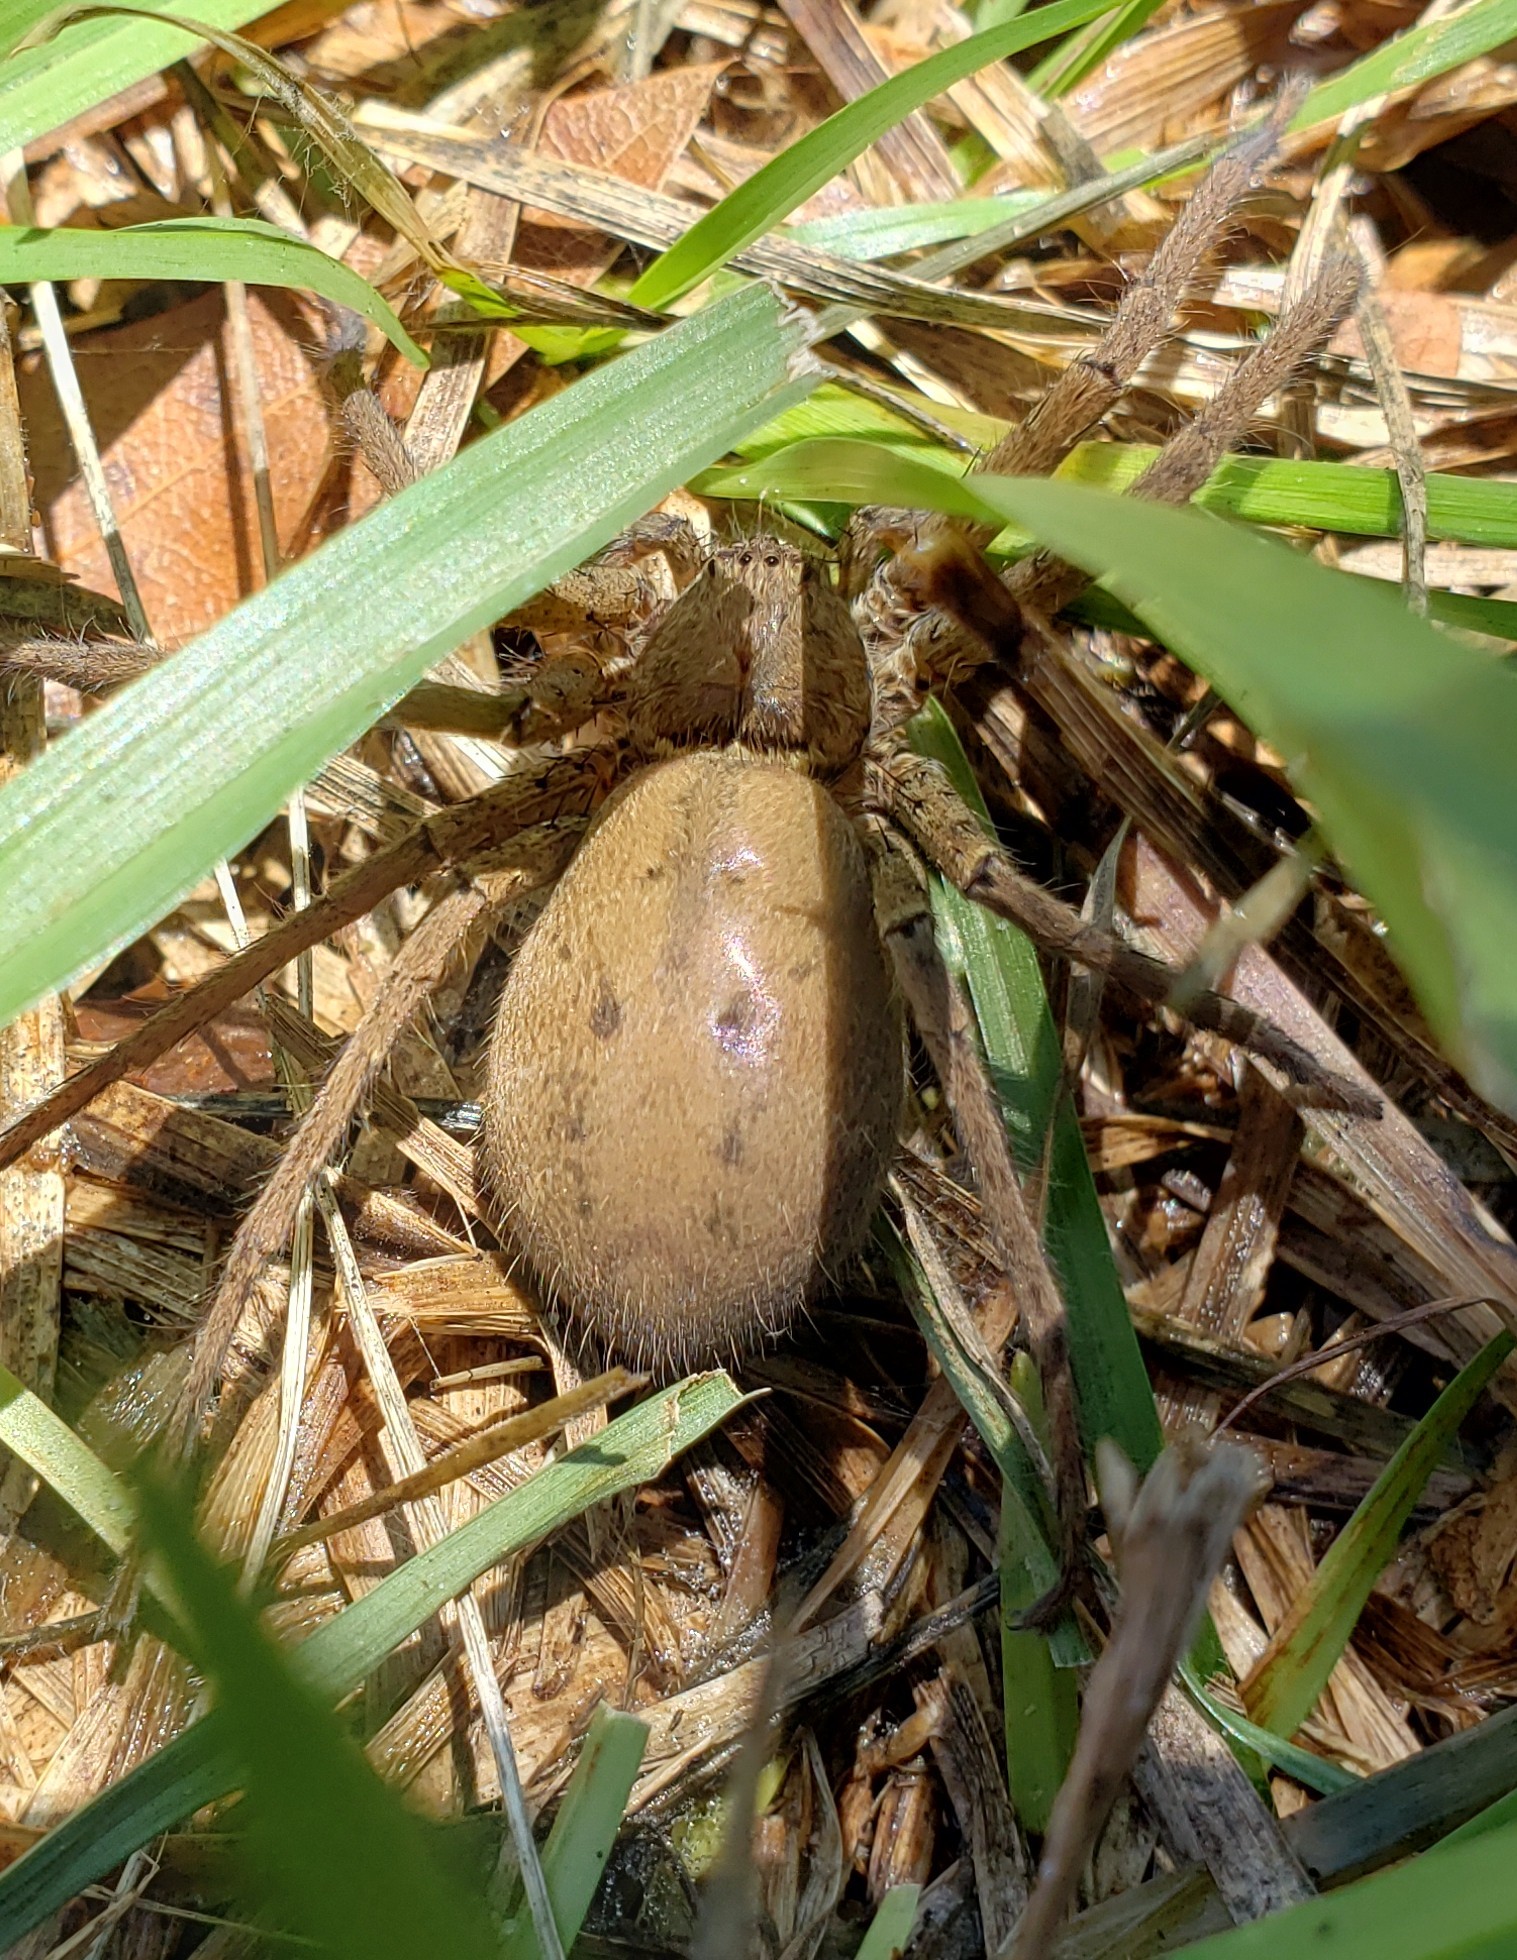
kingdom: Animalia
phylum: Arthropoda
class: Arachnida
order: Araneae
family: Sparassidae
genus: Heteropoda
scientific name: Heteropoda venatoria
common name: Huntsman spider
